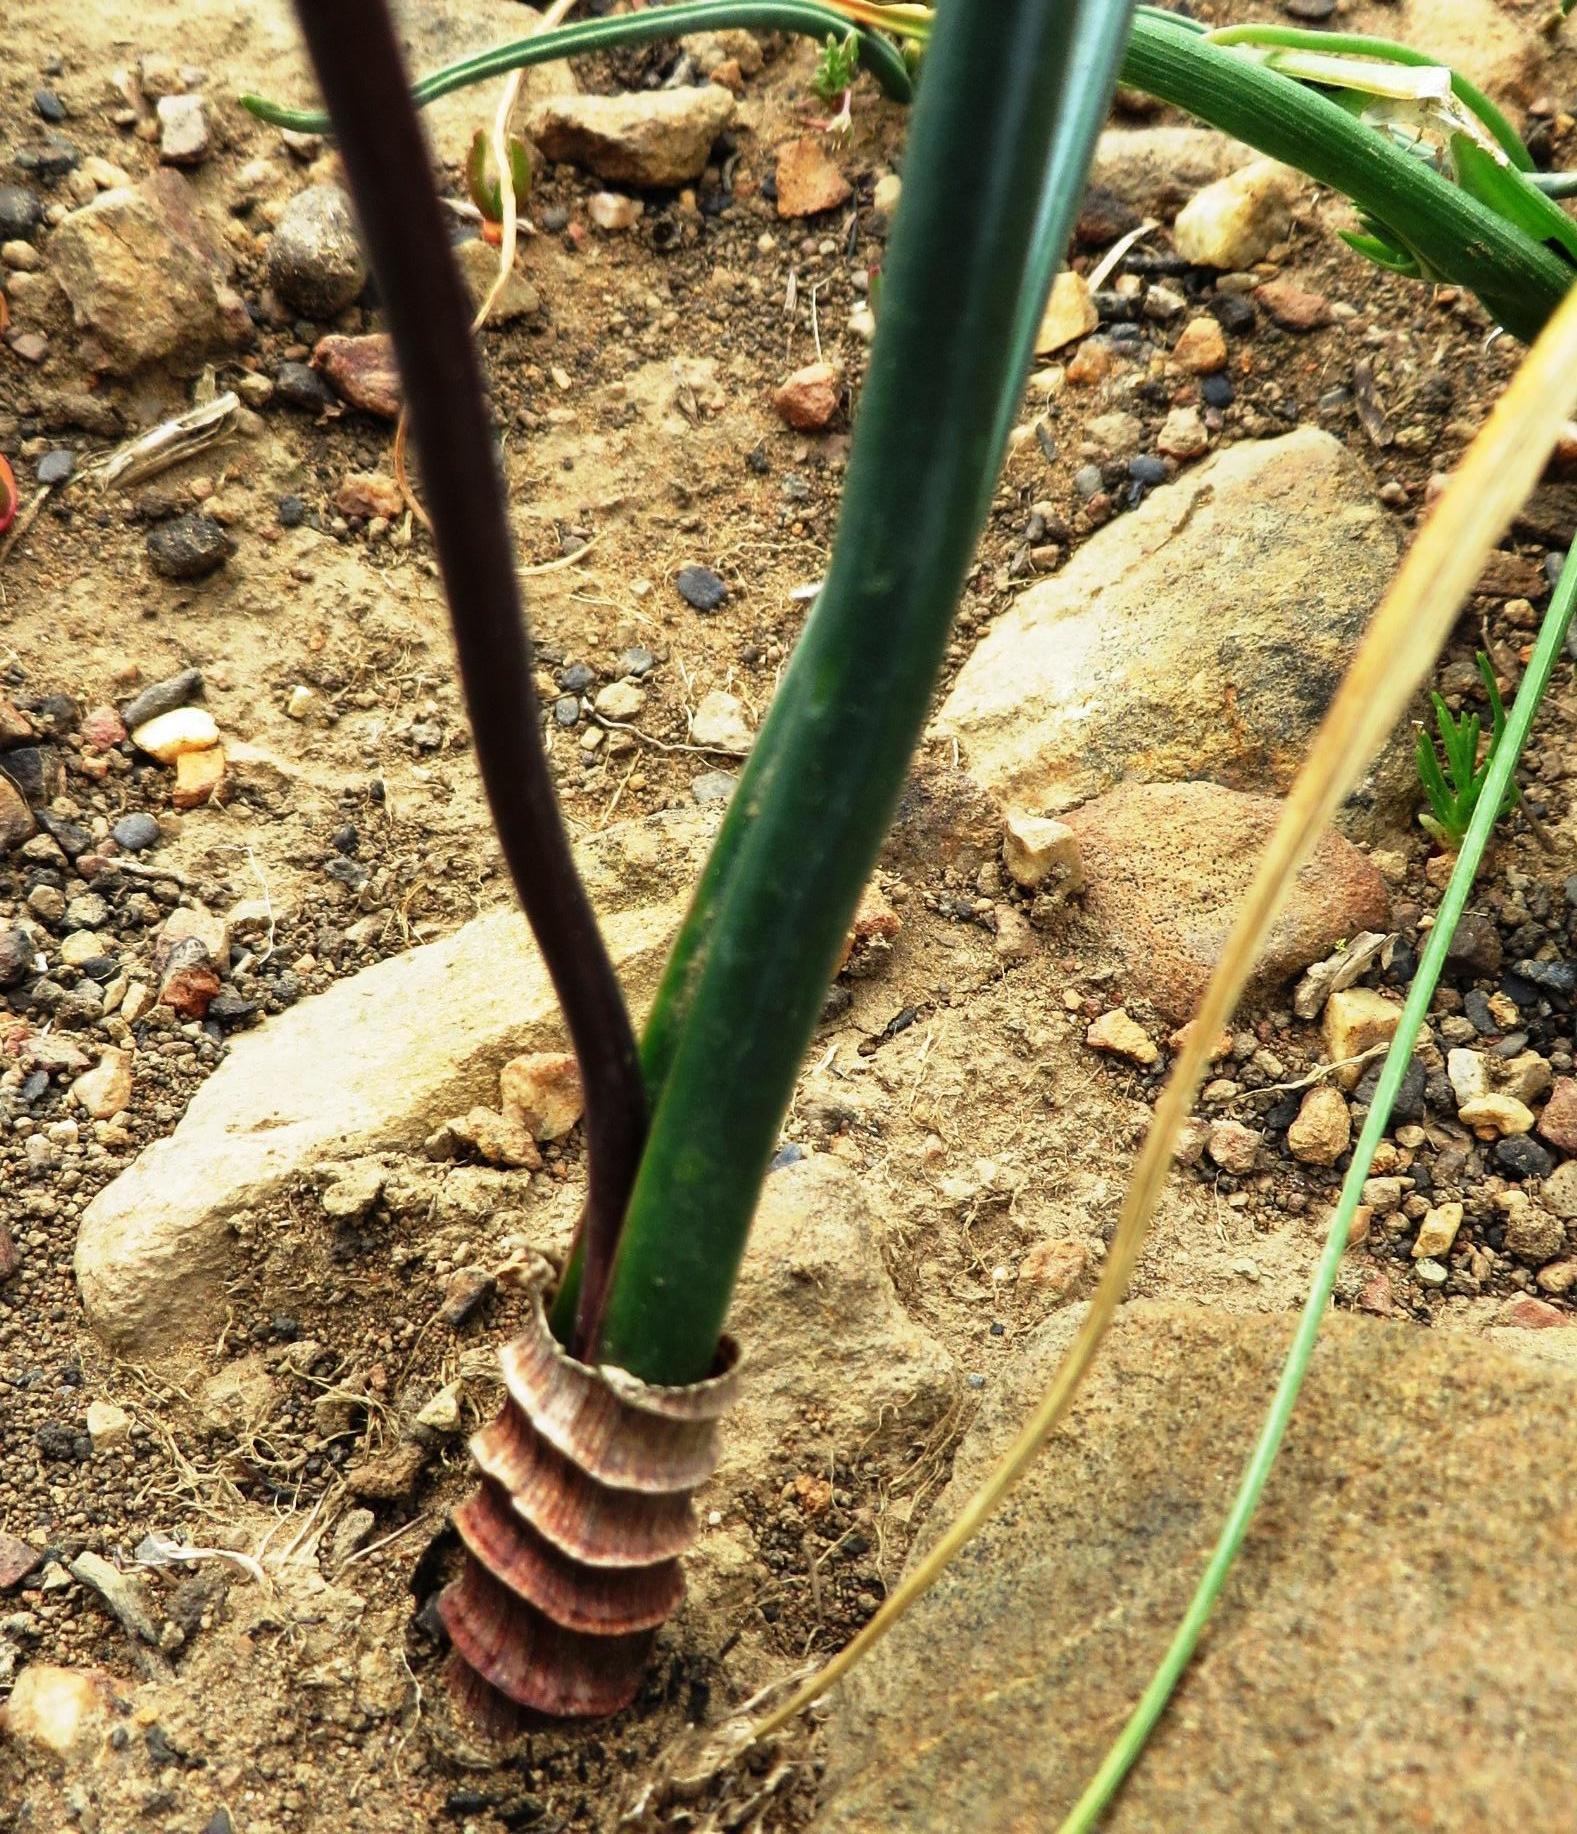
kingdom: Plantae
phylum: Tracheophyta
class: Liliopsida
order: Asparagales
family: Asparagaceae
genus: Drimia
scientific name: Drimia exuviata
